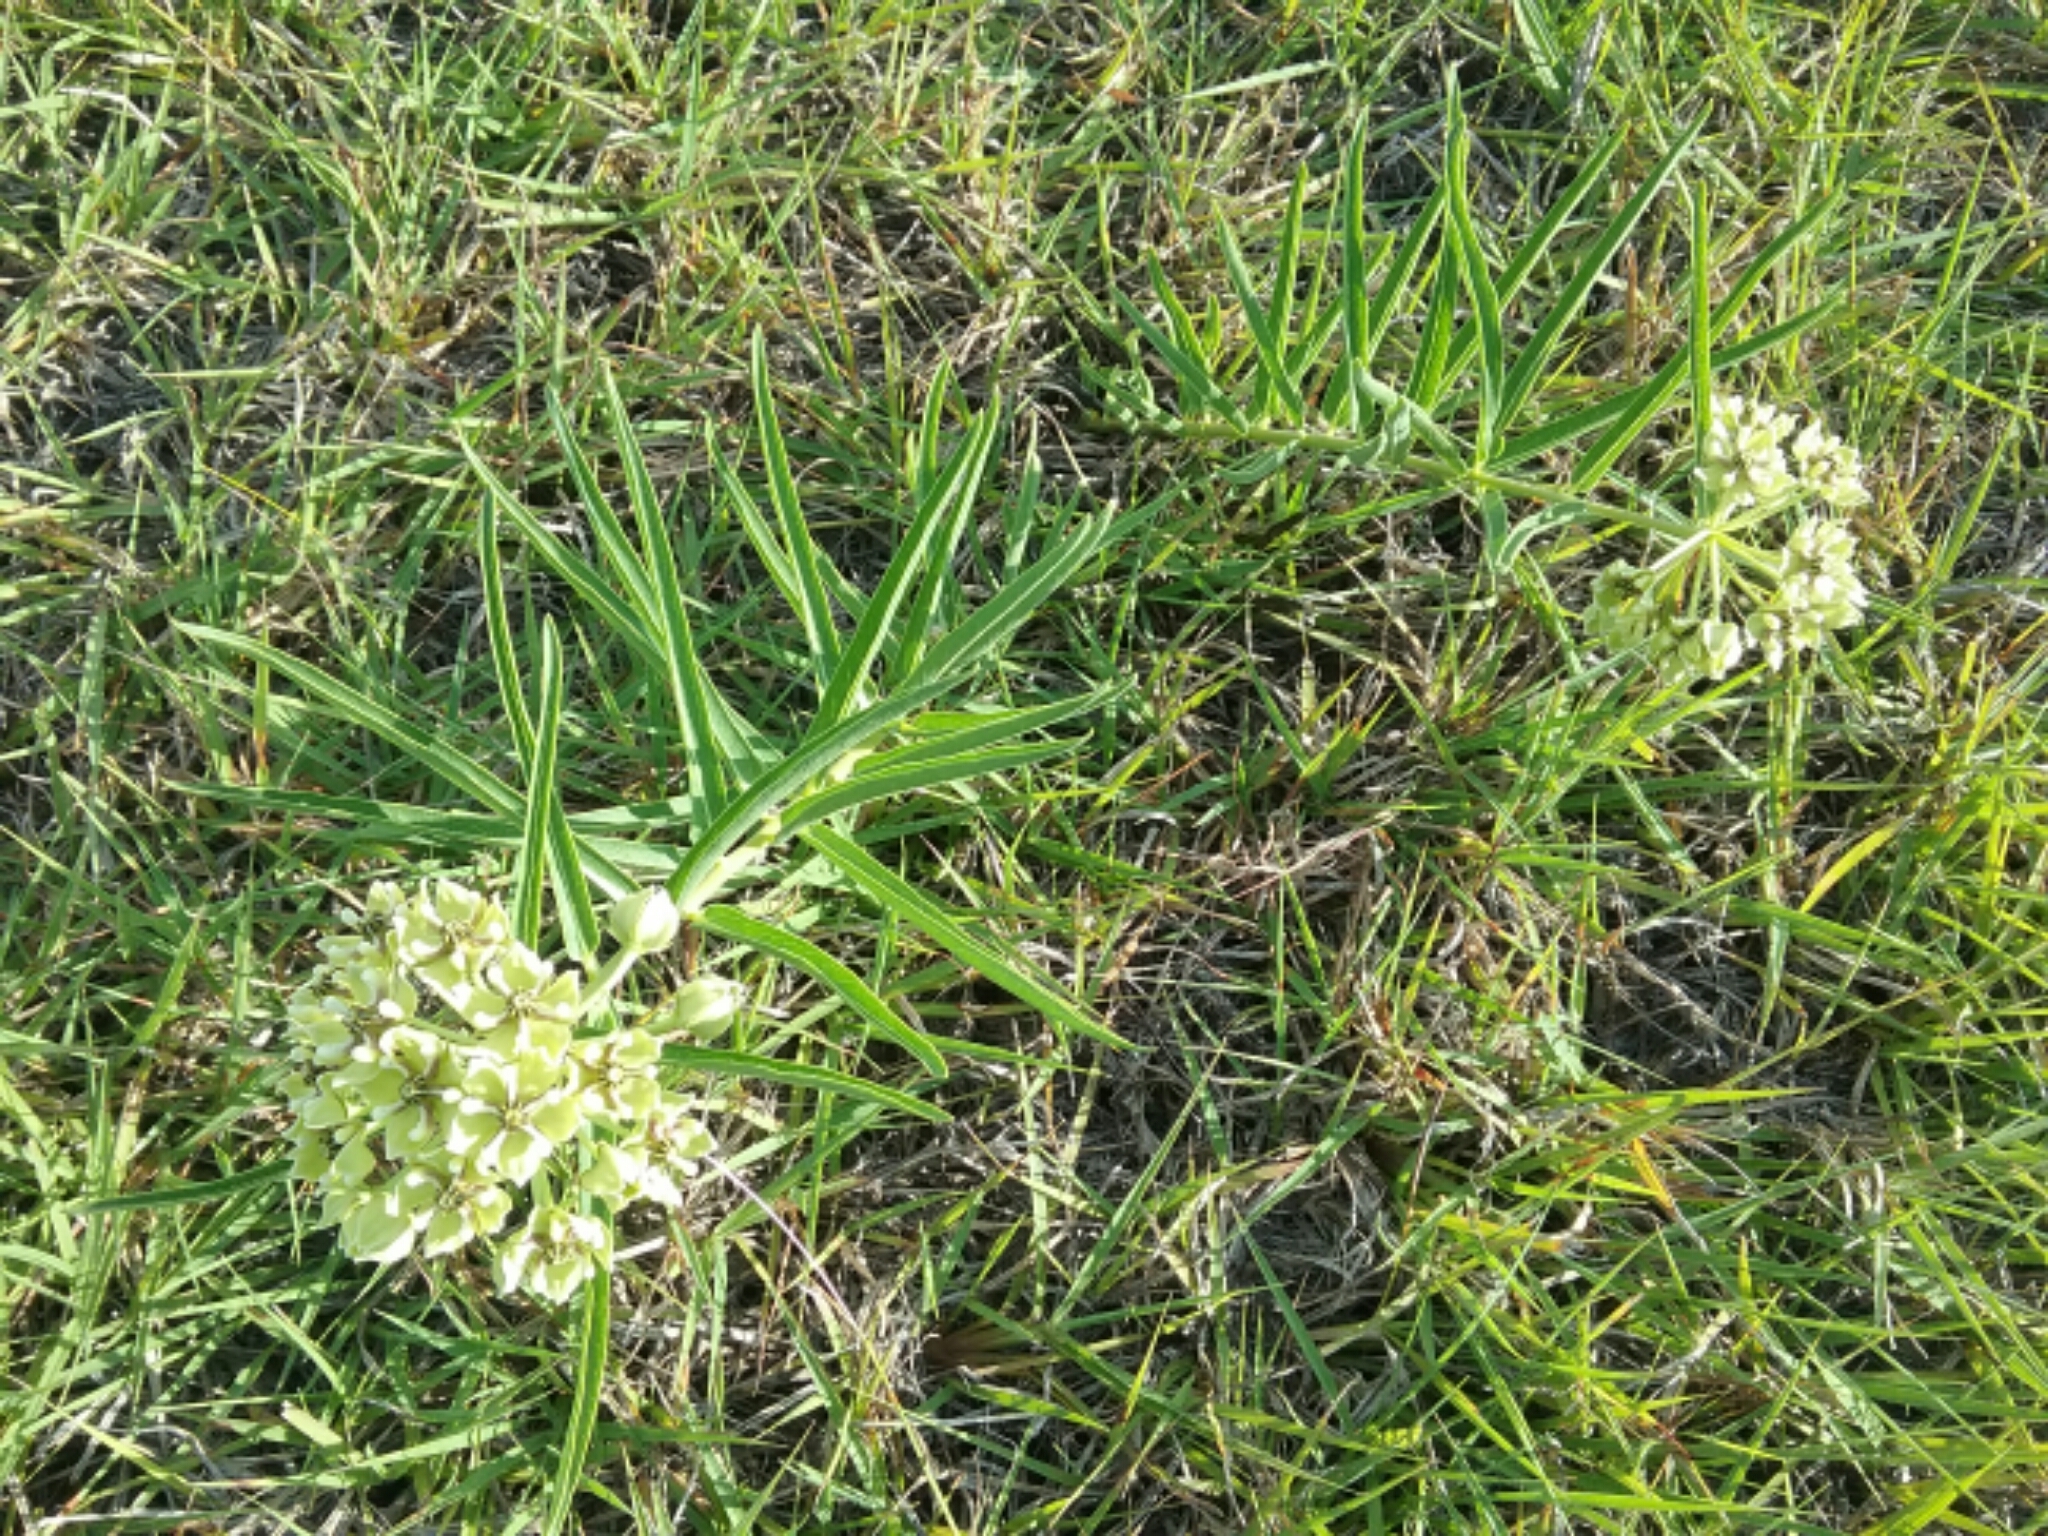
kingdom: Plantae
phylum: Tracheophyta
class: Magnoliopsida
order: Gentianales
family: Apocynaceae
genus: Asclepias
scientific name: Asclepias asperula
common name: Antelope horns
